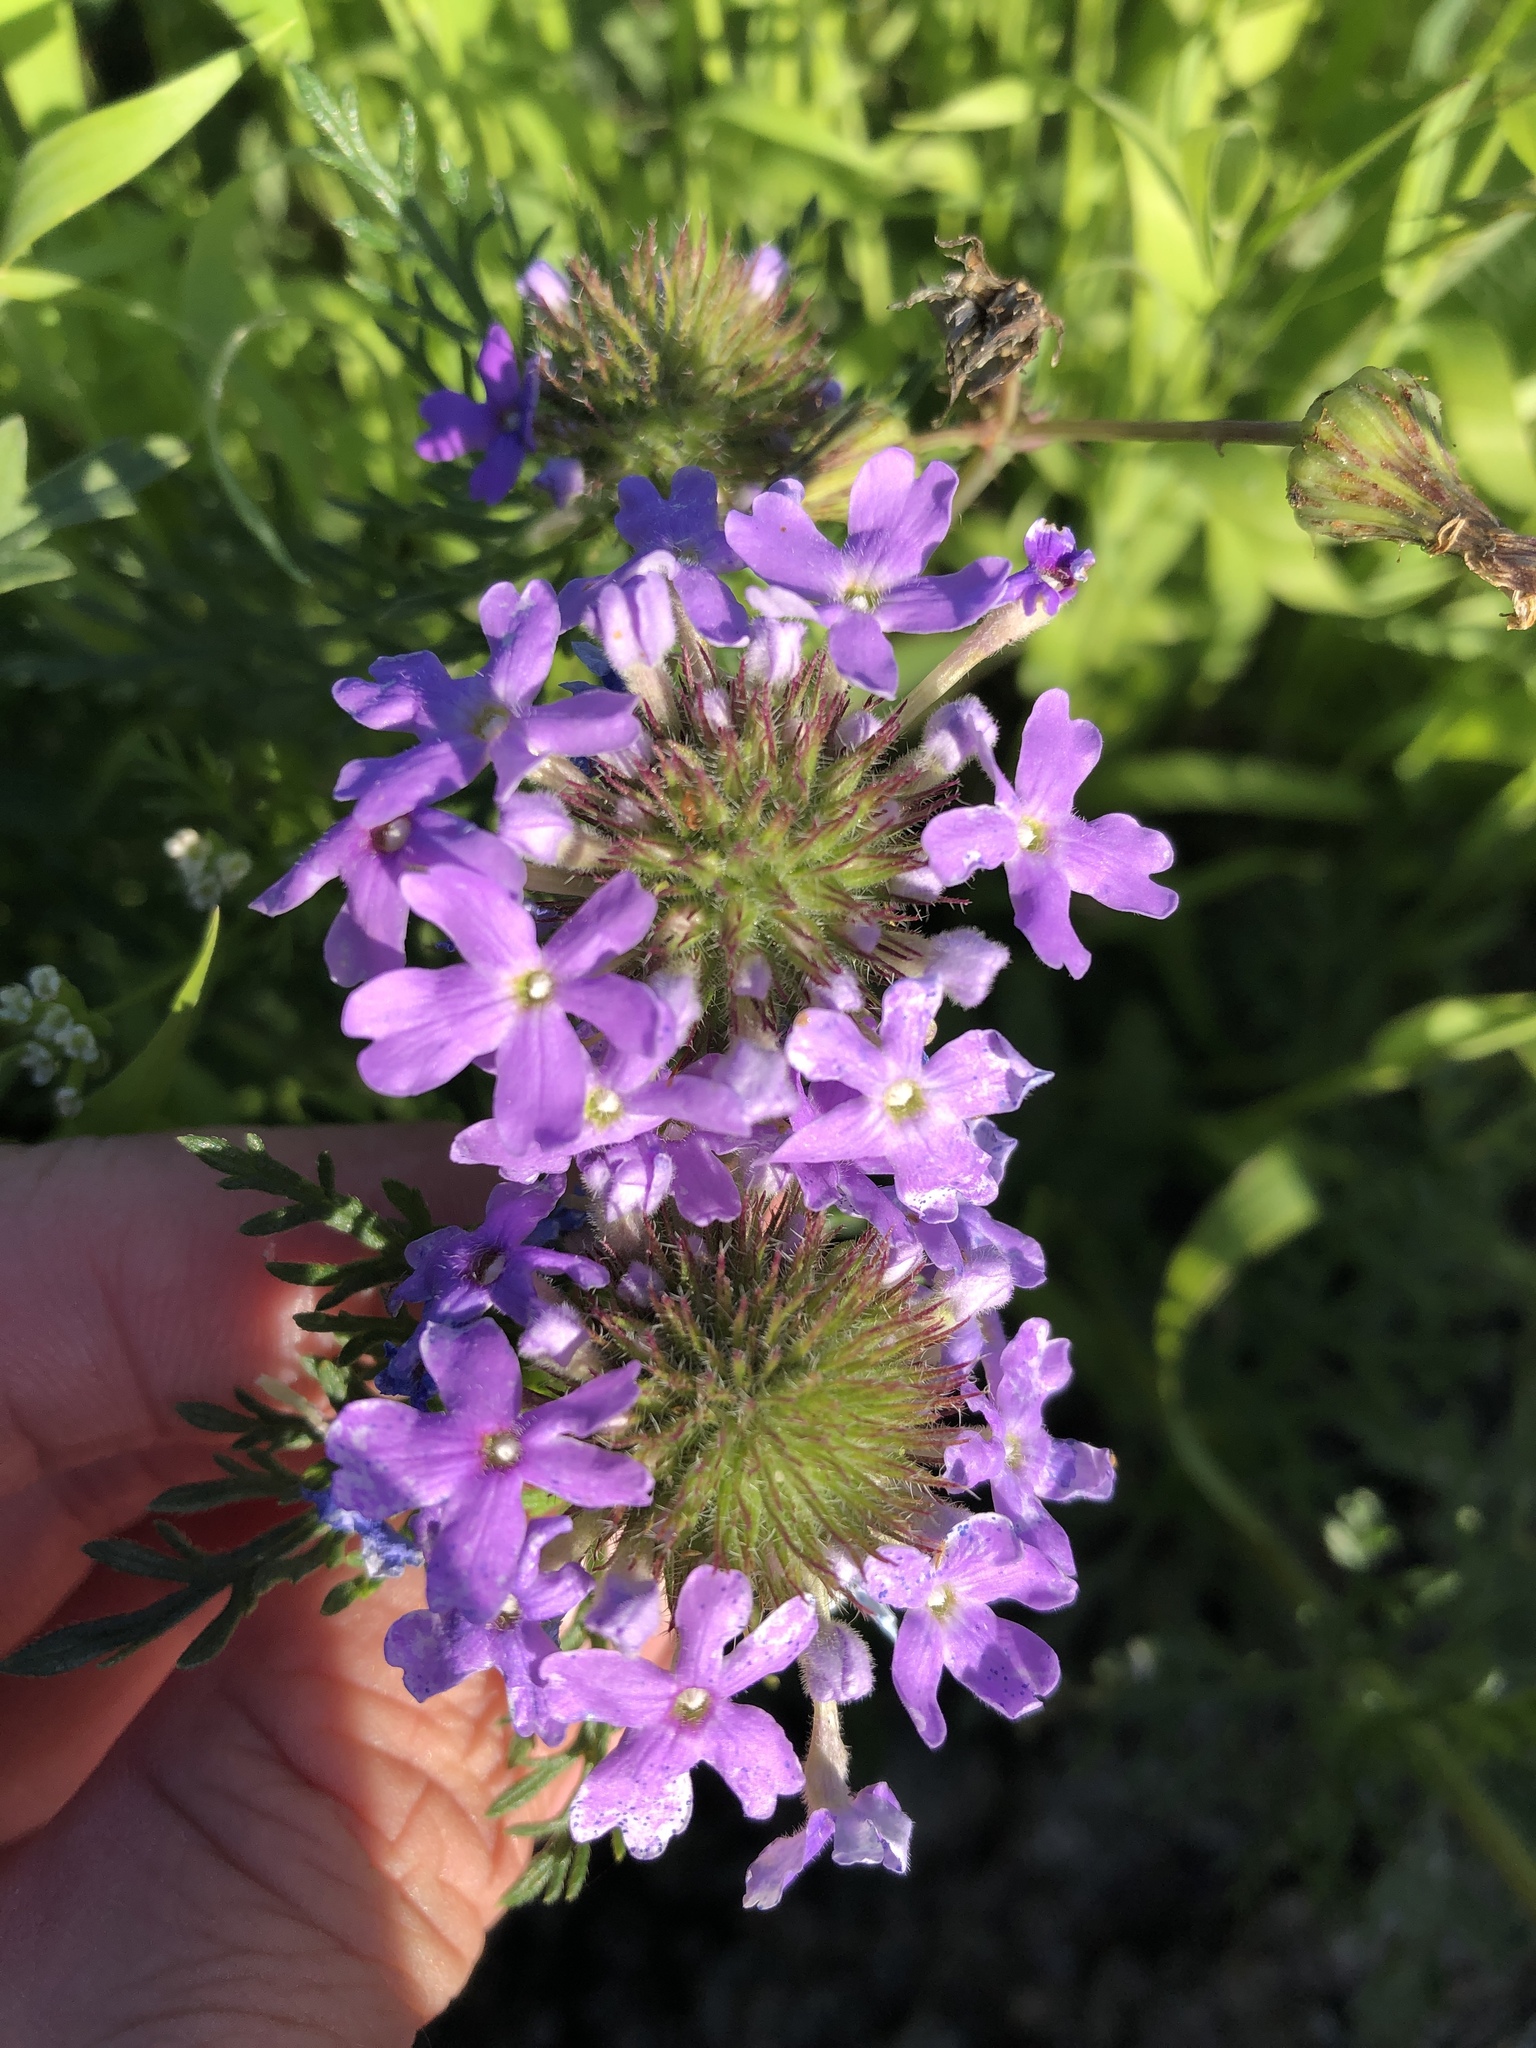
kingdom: Plantae
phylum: Tracheophyta
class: Magnoliopsida
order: Lamiales
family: Verbenaceae
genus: Verbena
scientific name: Verbena bipinnatifida
